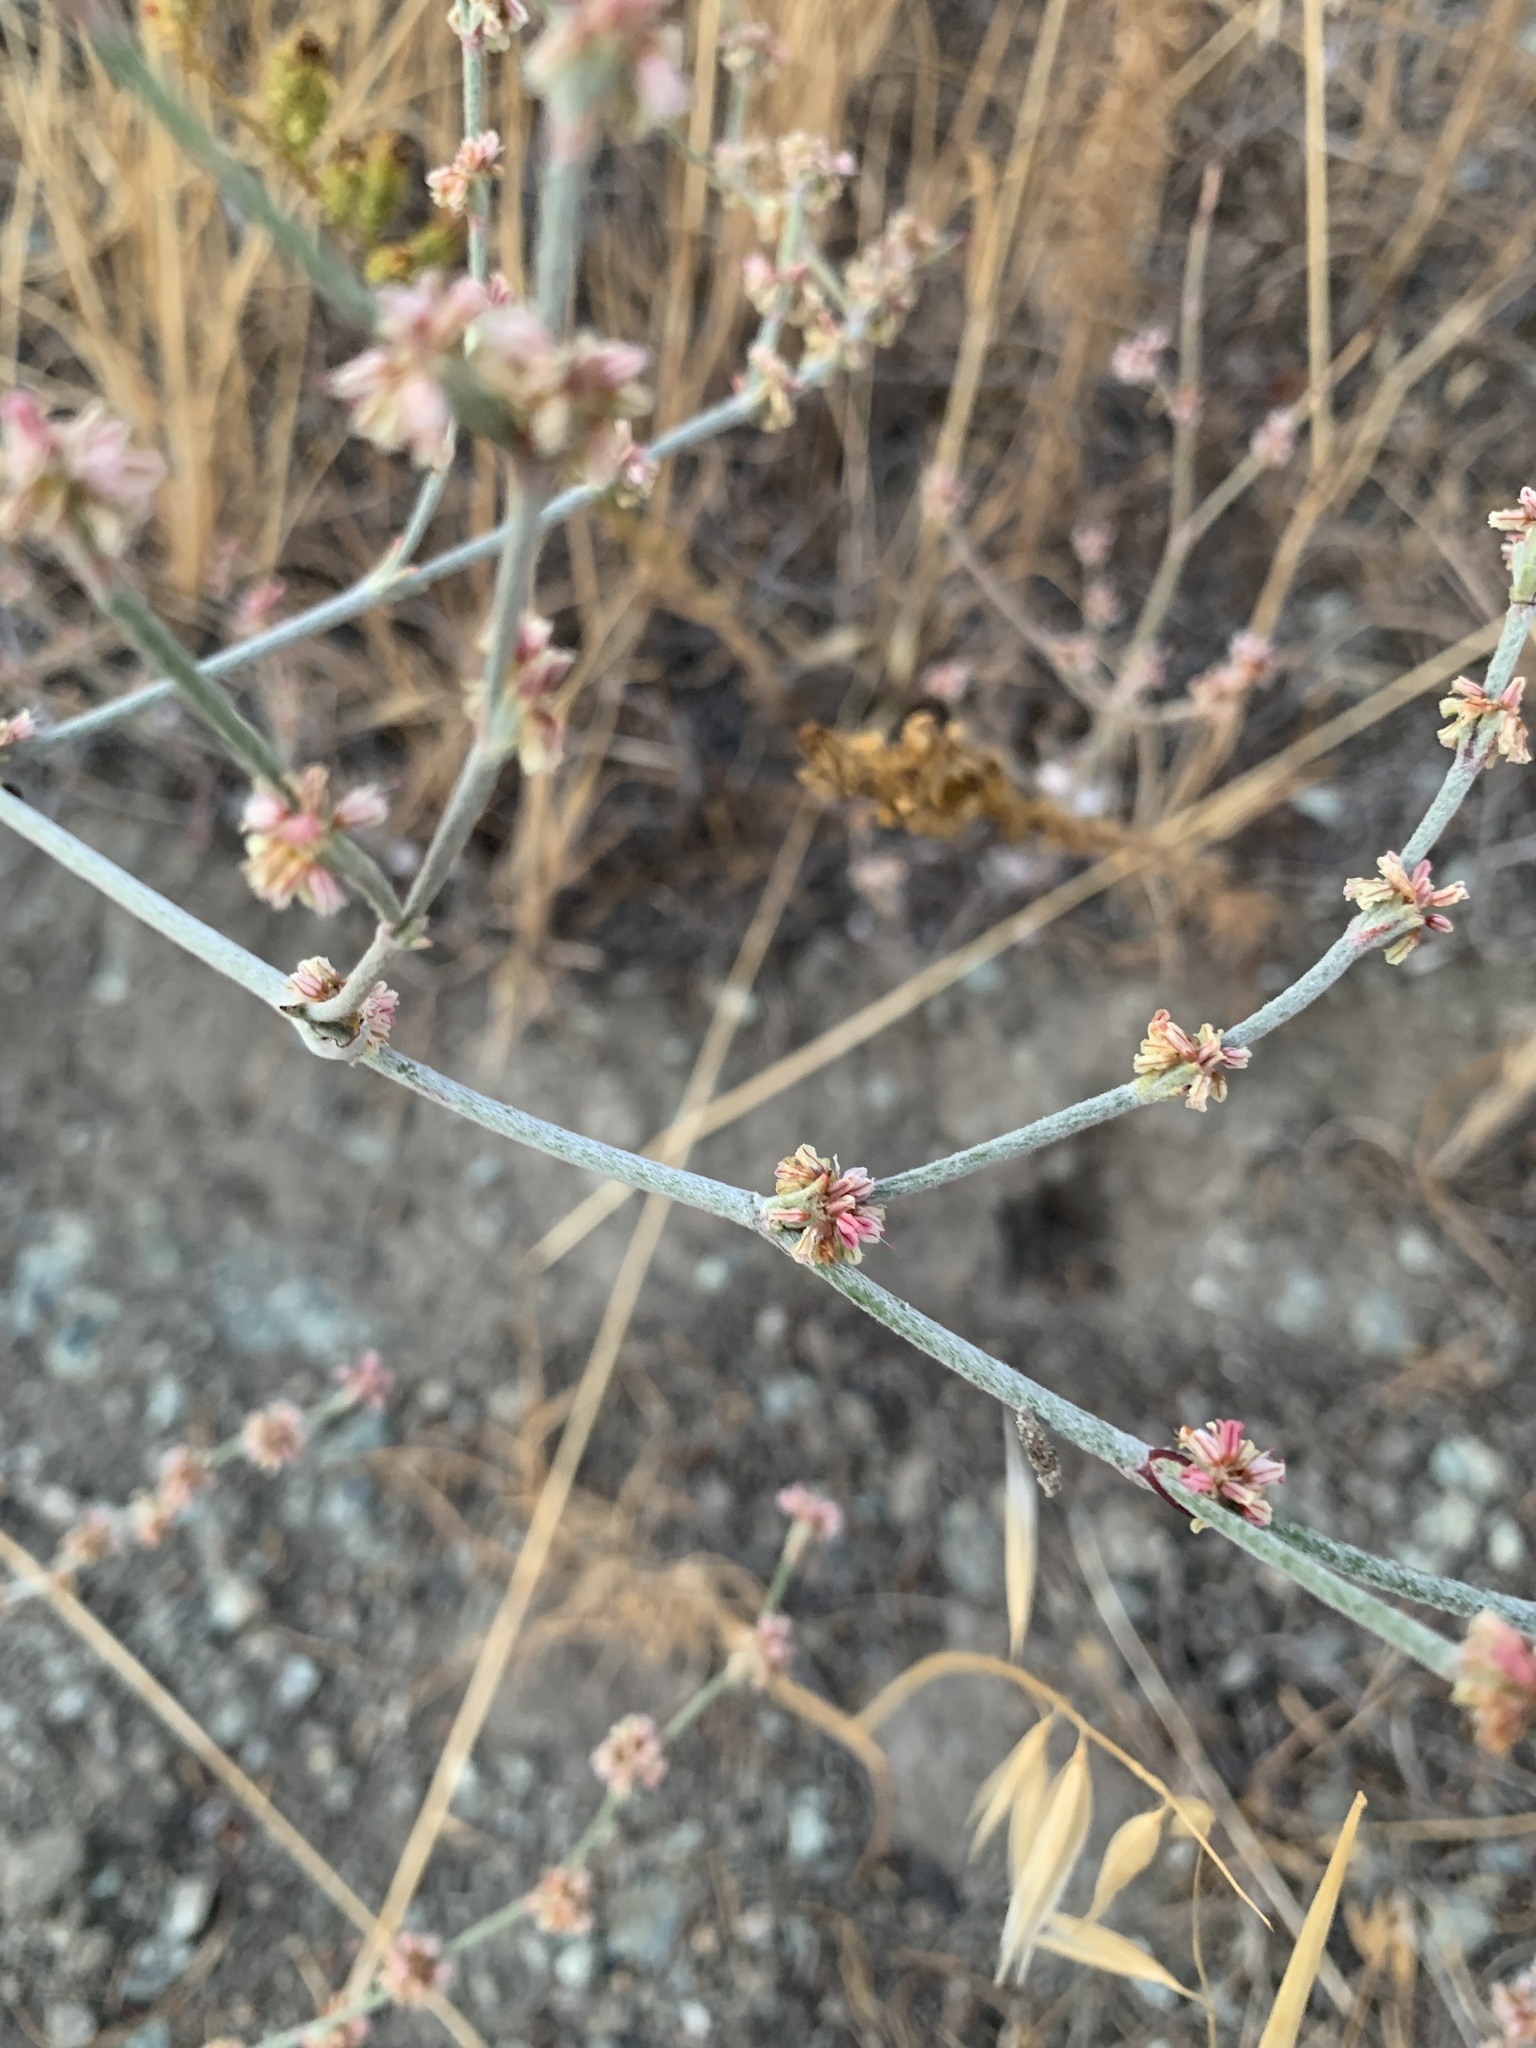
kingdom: Plantae
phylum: Tracheophyta
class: Magnoliopsida
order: Caryophyllales
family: Polygonaceae
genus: Eriogonum
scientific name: Eriogonum gracile
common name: Slender woolly buckwheat
